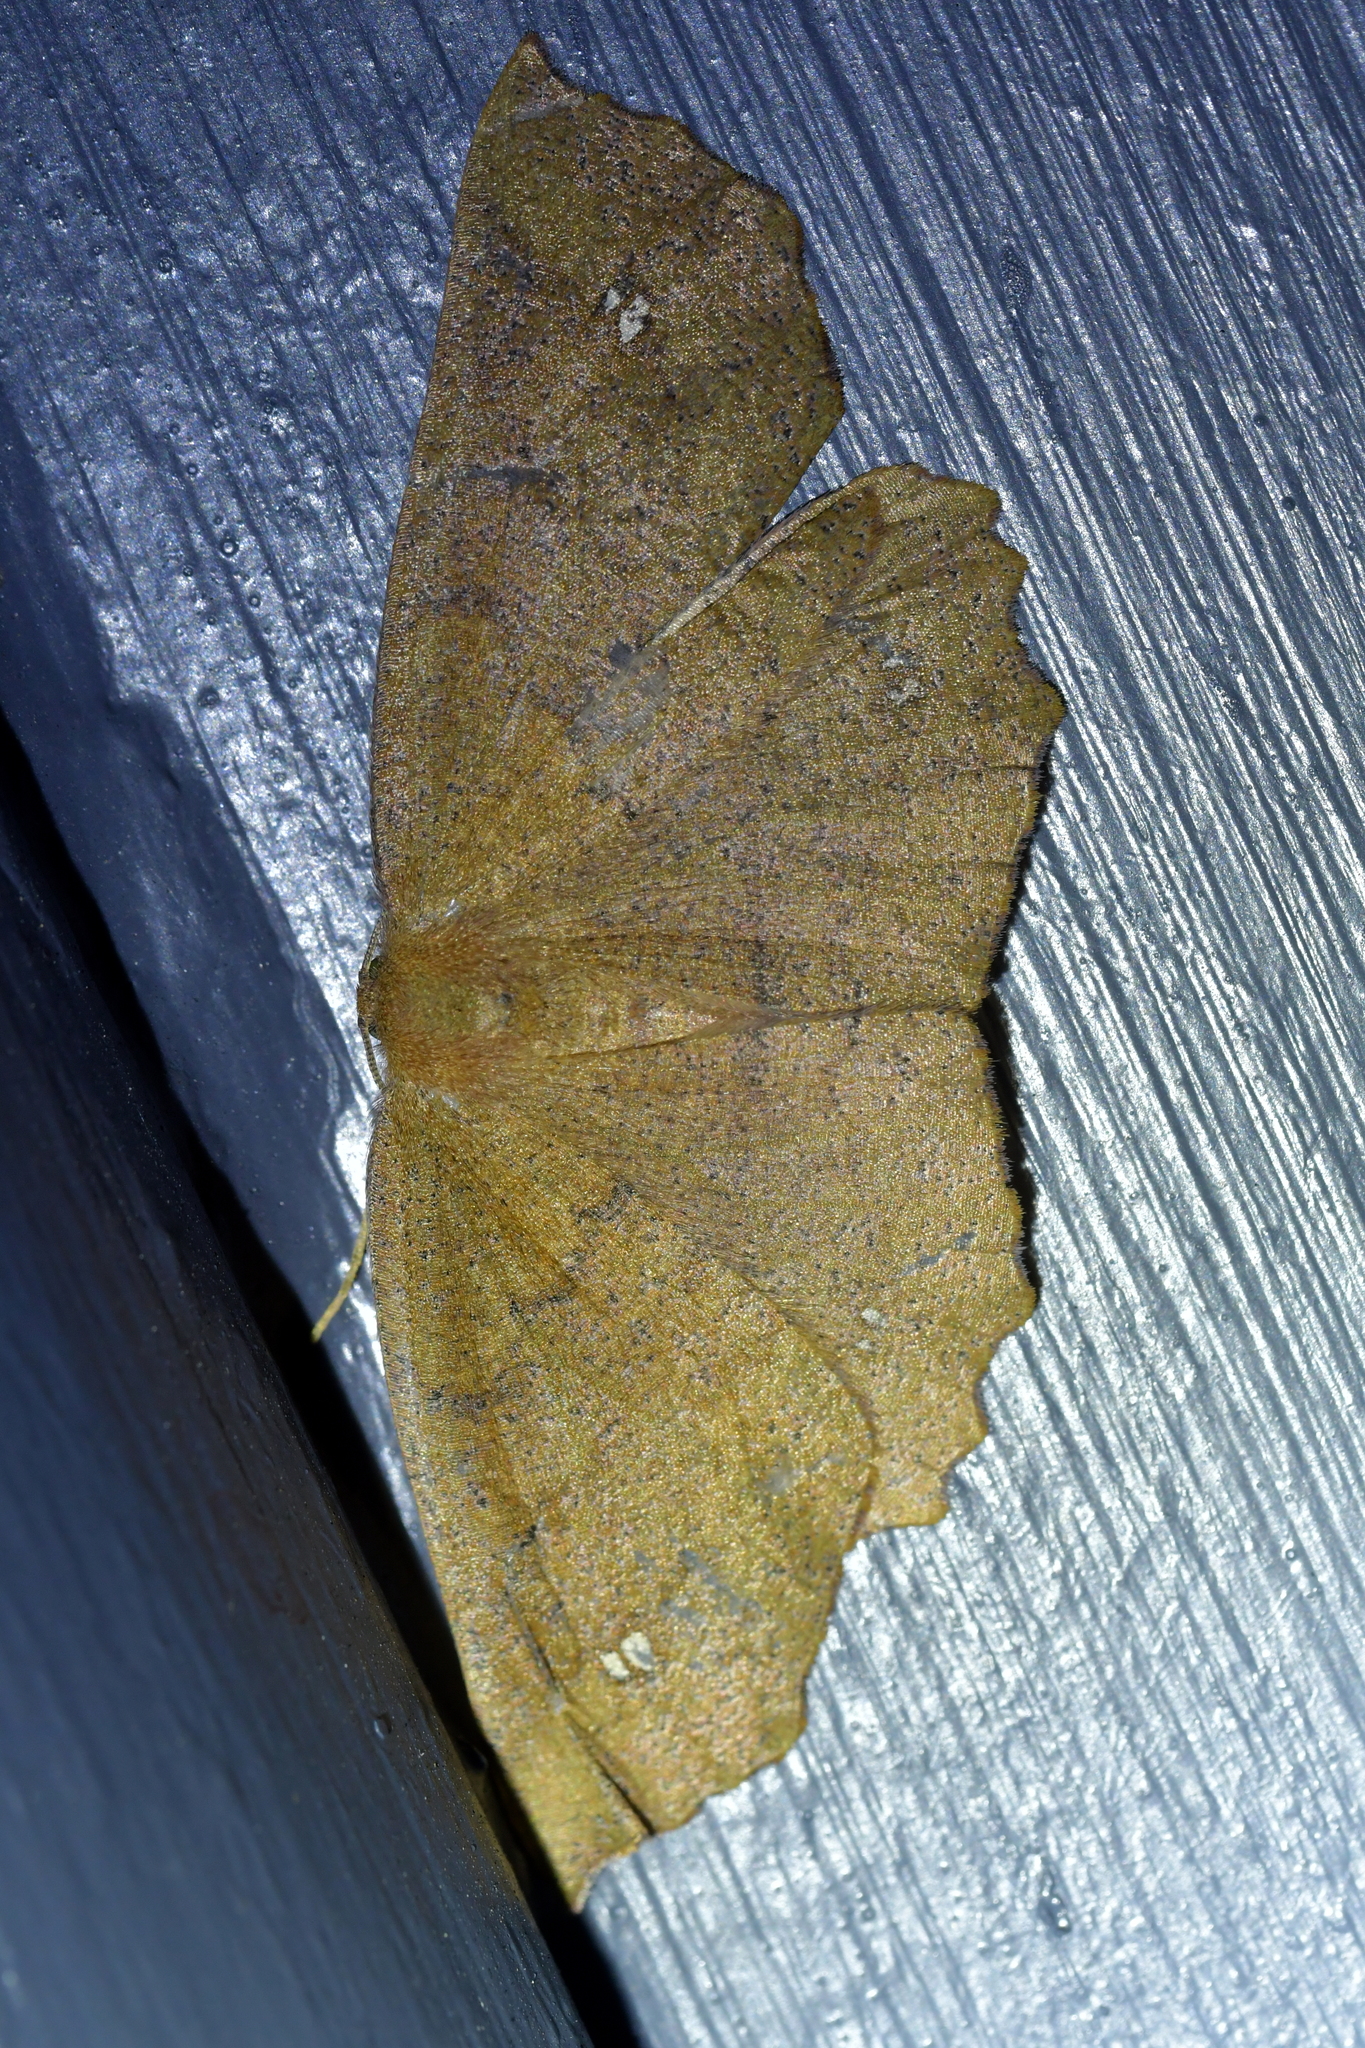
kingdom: Animalia
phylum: Arthropoda
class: Insecta
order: Lepidoptera
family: Geometridae
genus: Xyridacma
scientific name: Xyridacma ustaria
